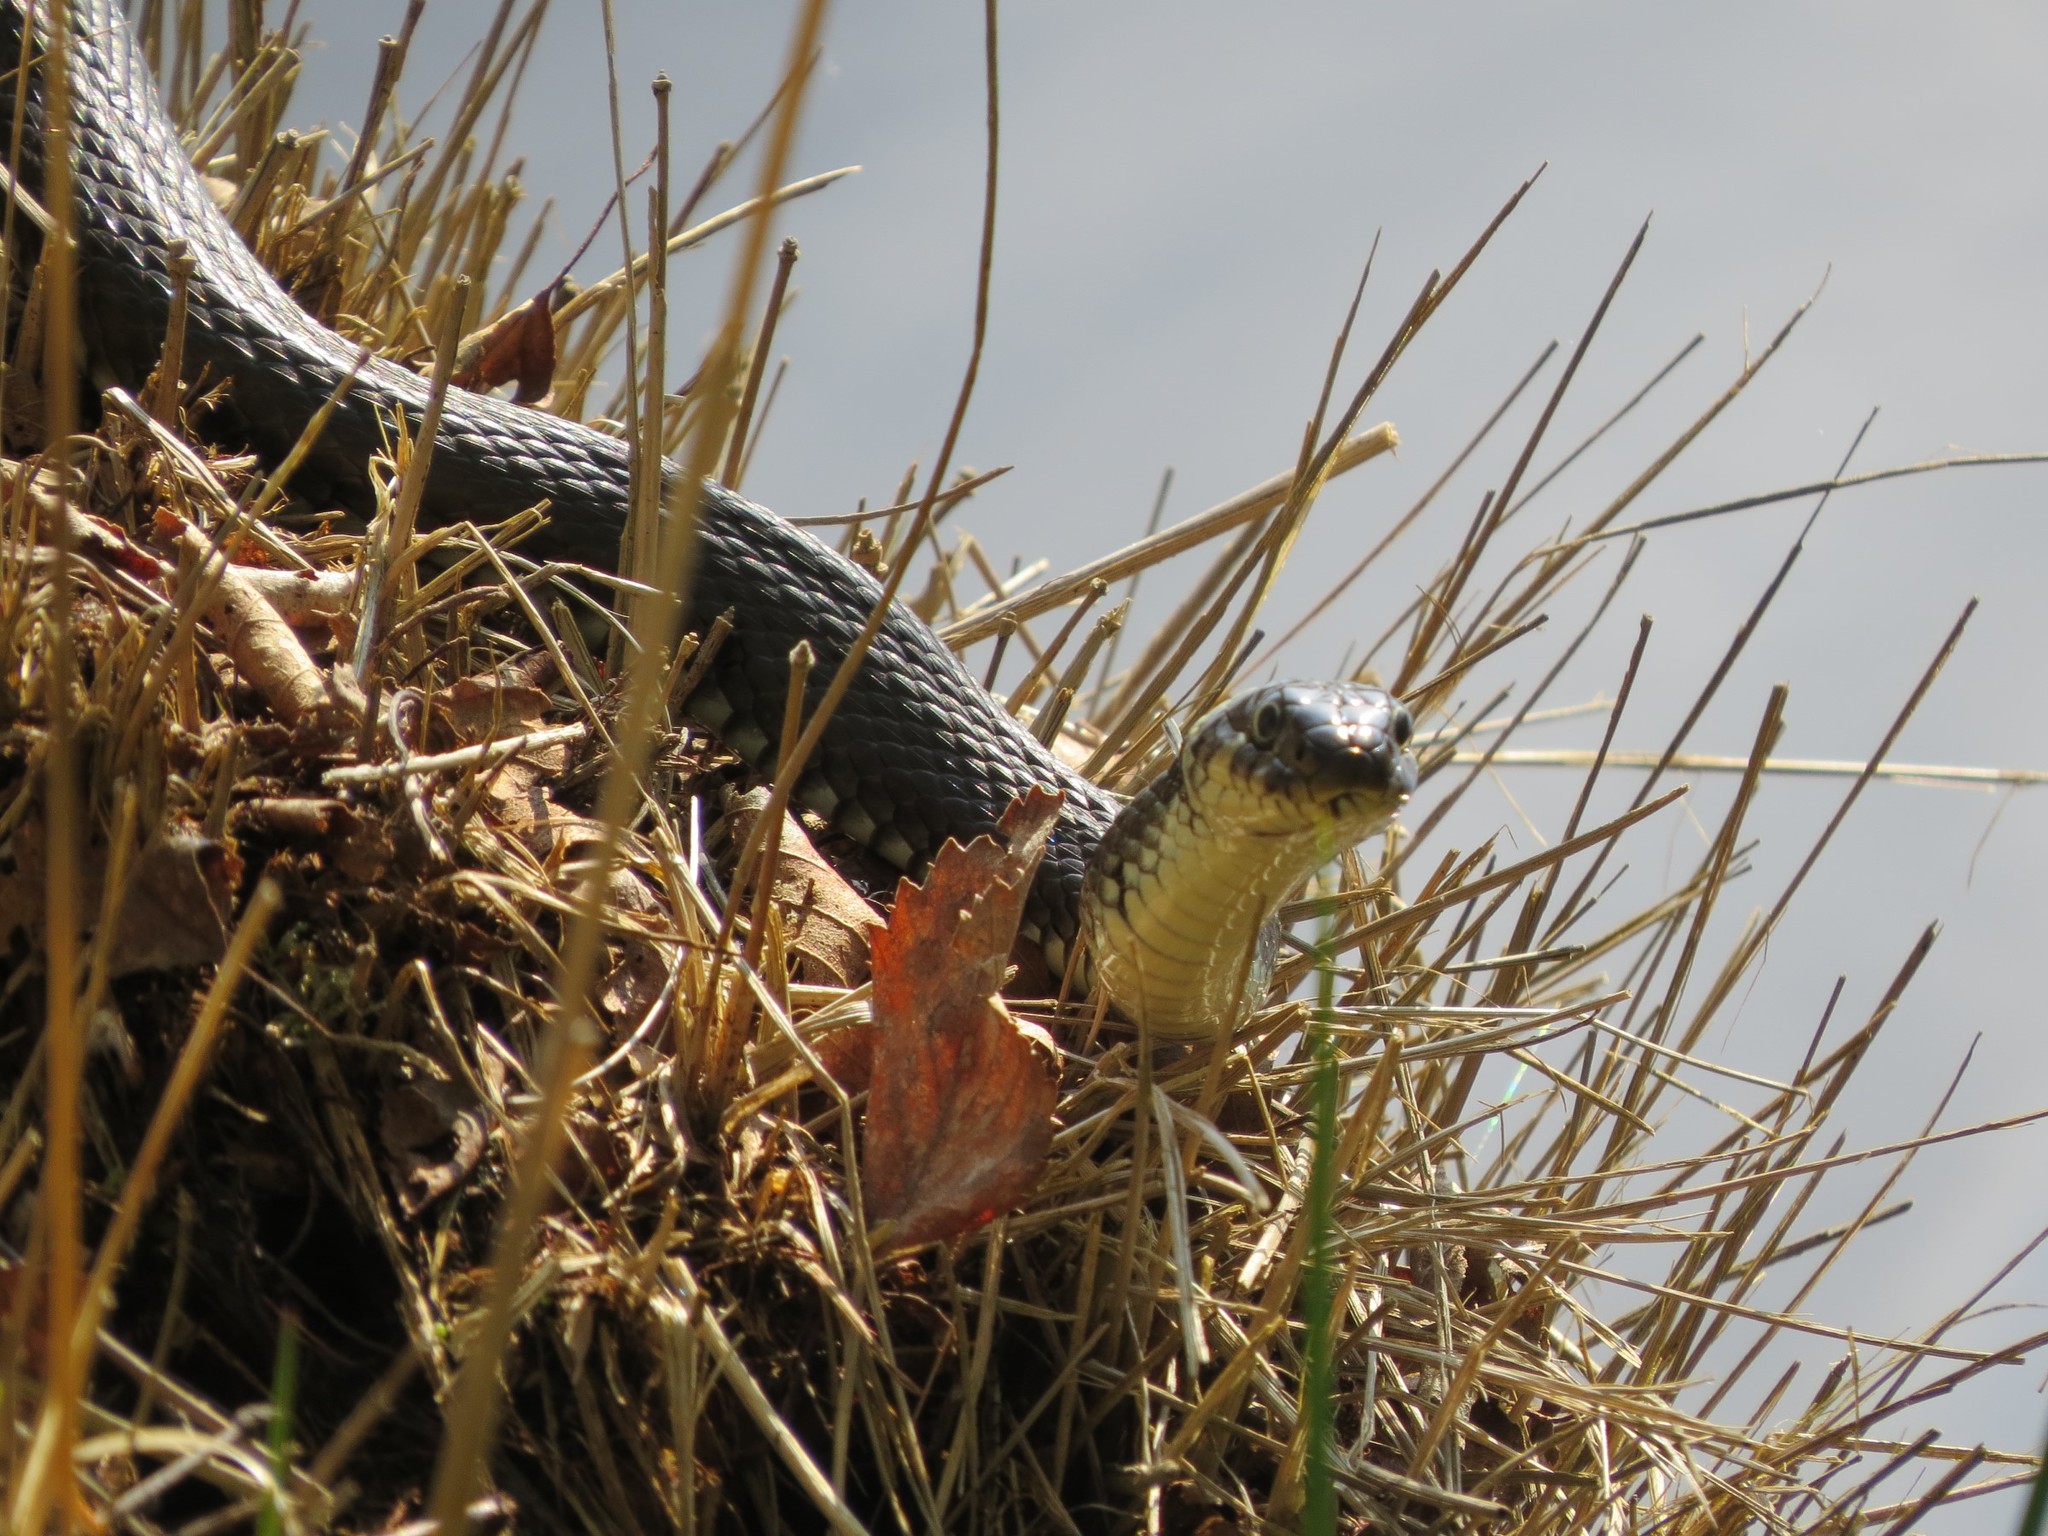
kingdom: Animalia
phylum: Chordata
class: Squamata
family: Colubridae
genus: Natrix
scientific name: Natrix natrix
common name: Grass snake
